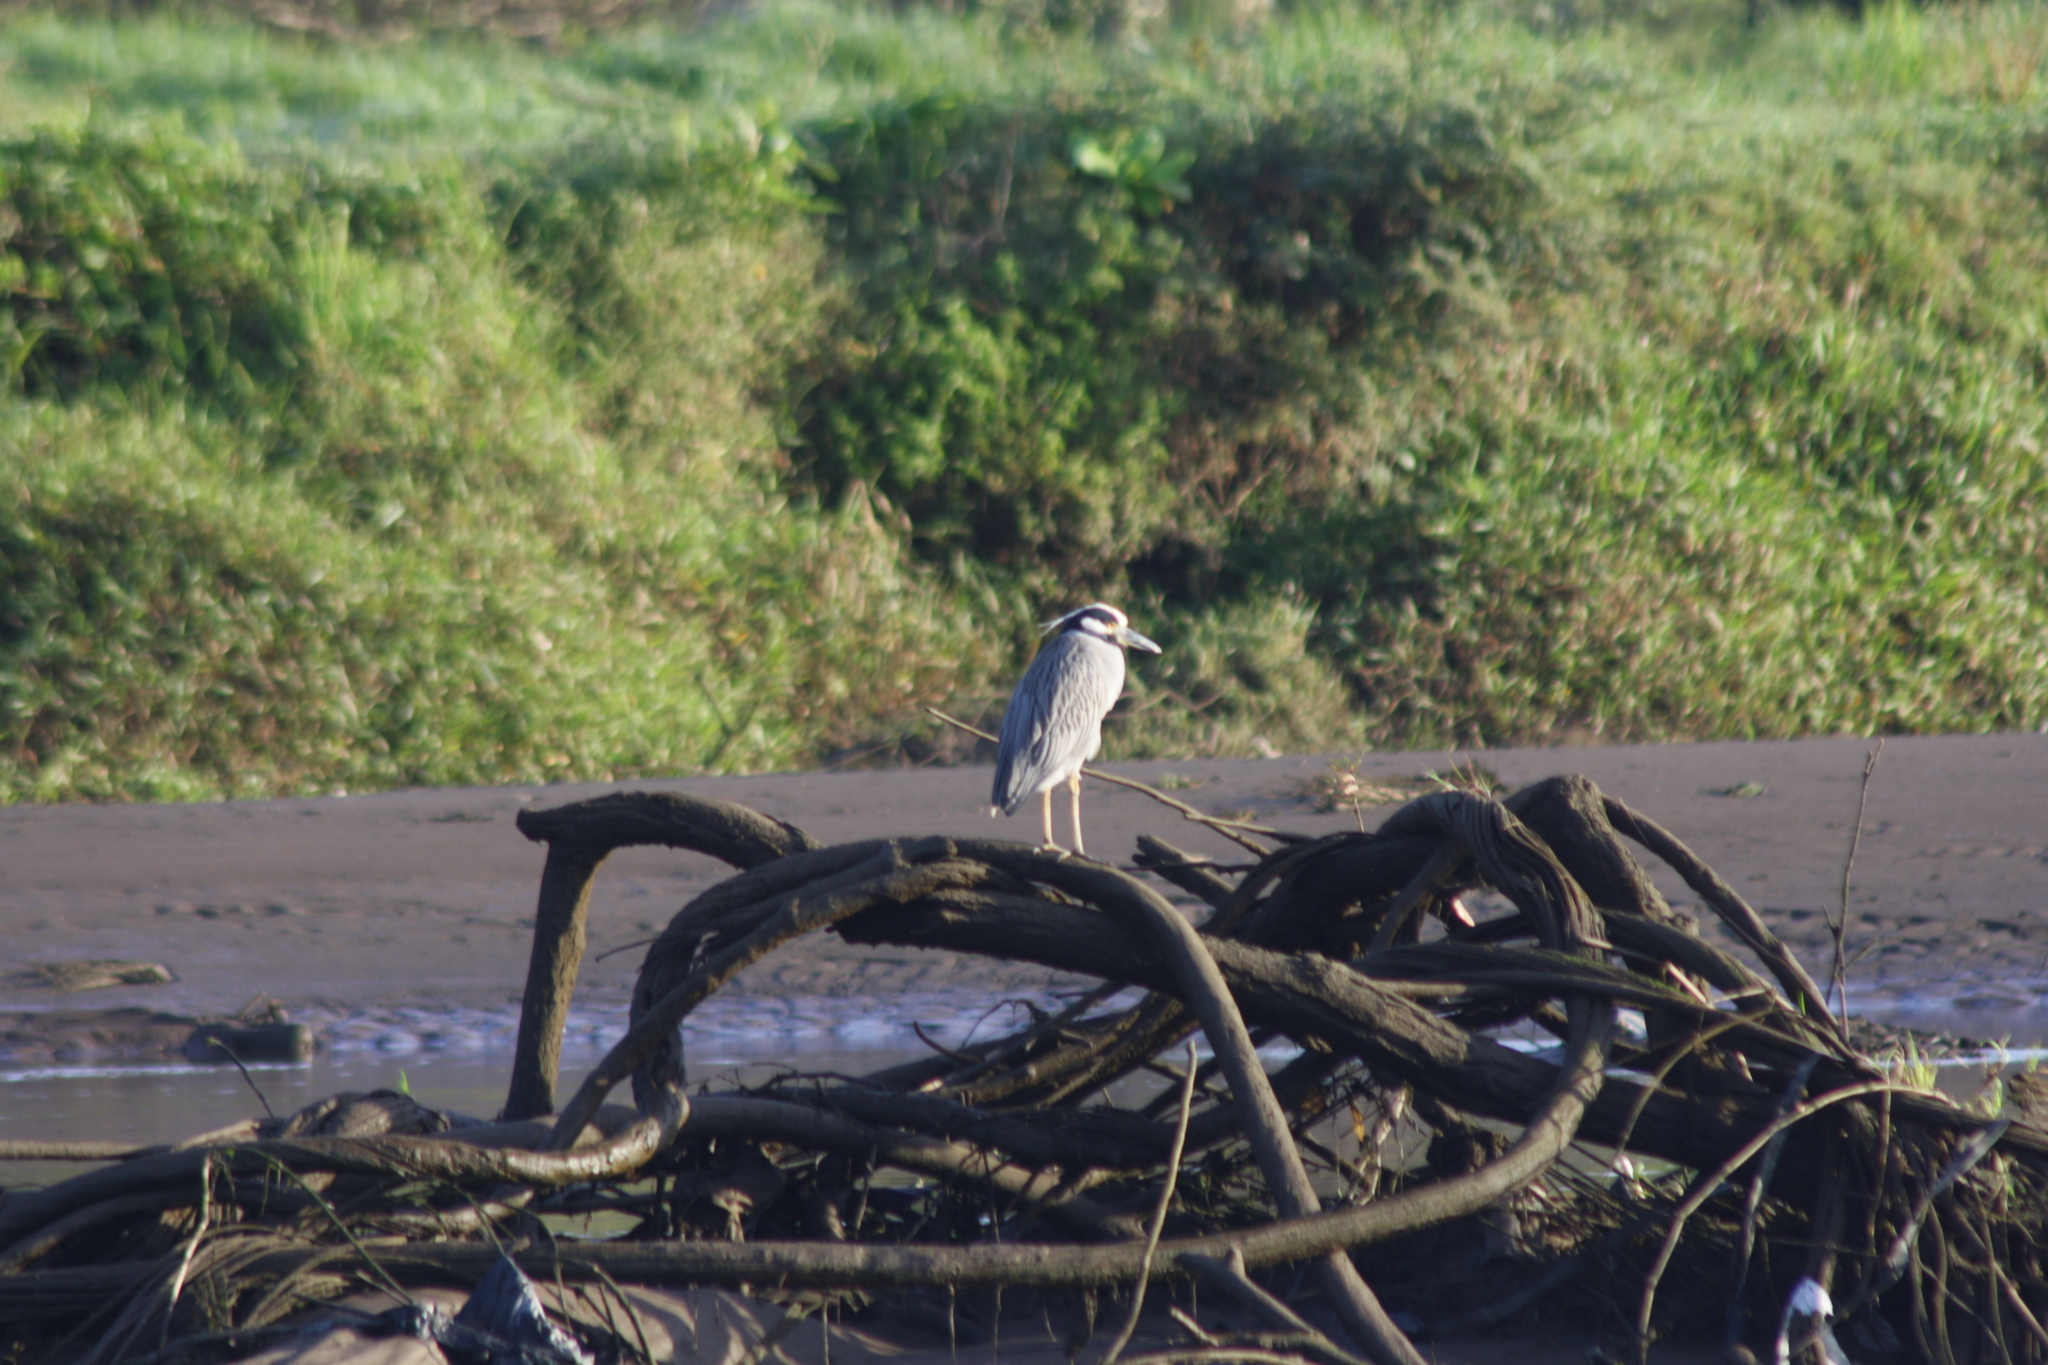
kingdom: Animalia
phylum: Chordata
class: Aves
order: Pelecaniformes
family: Ardeidae
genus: Nyctanassa
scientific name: Nyctanassa violacea
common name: Yellow-crowned night heron
